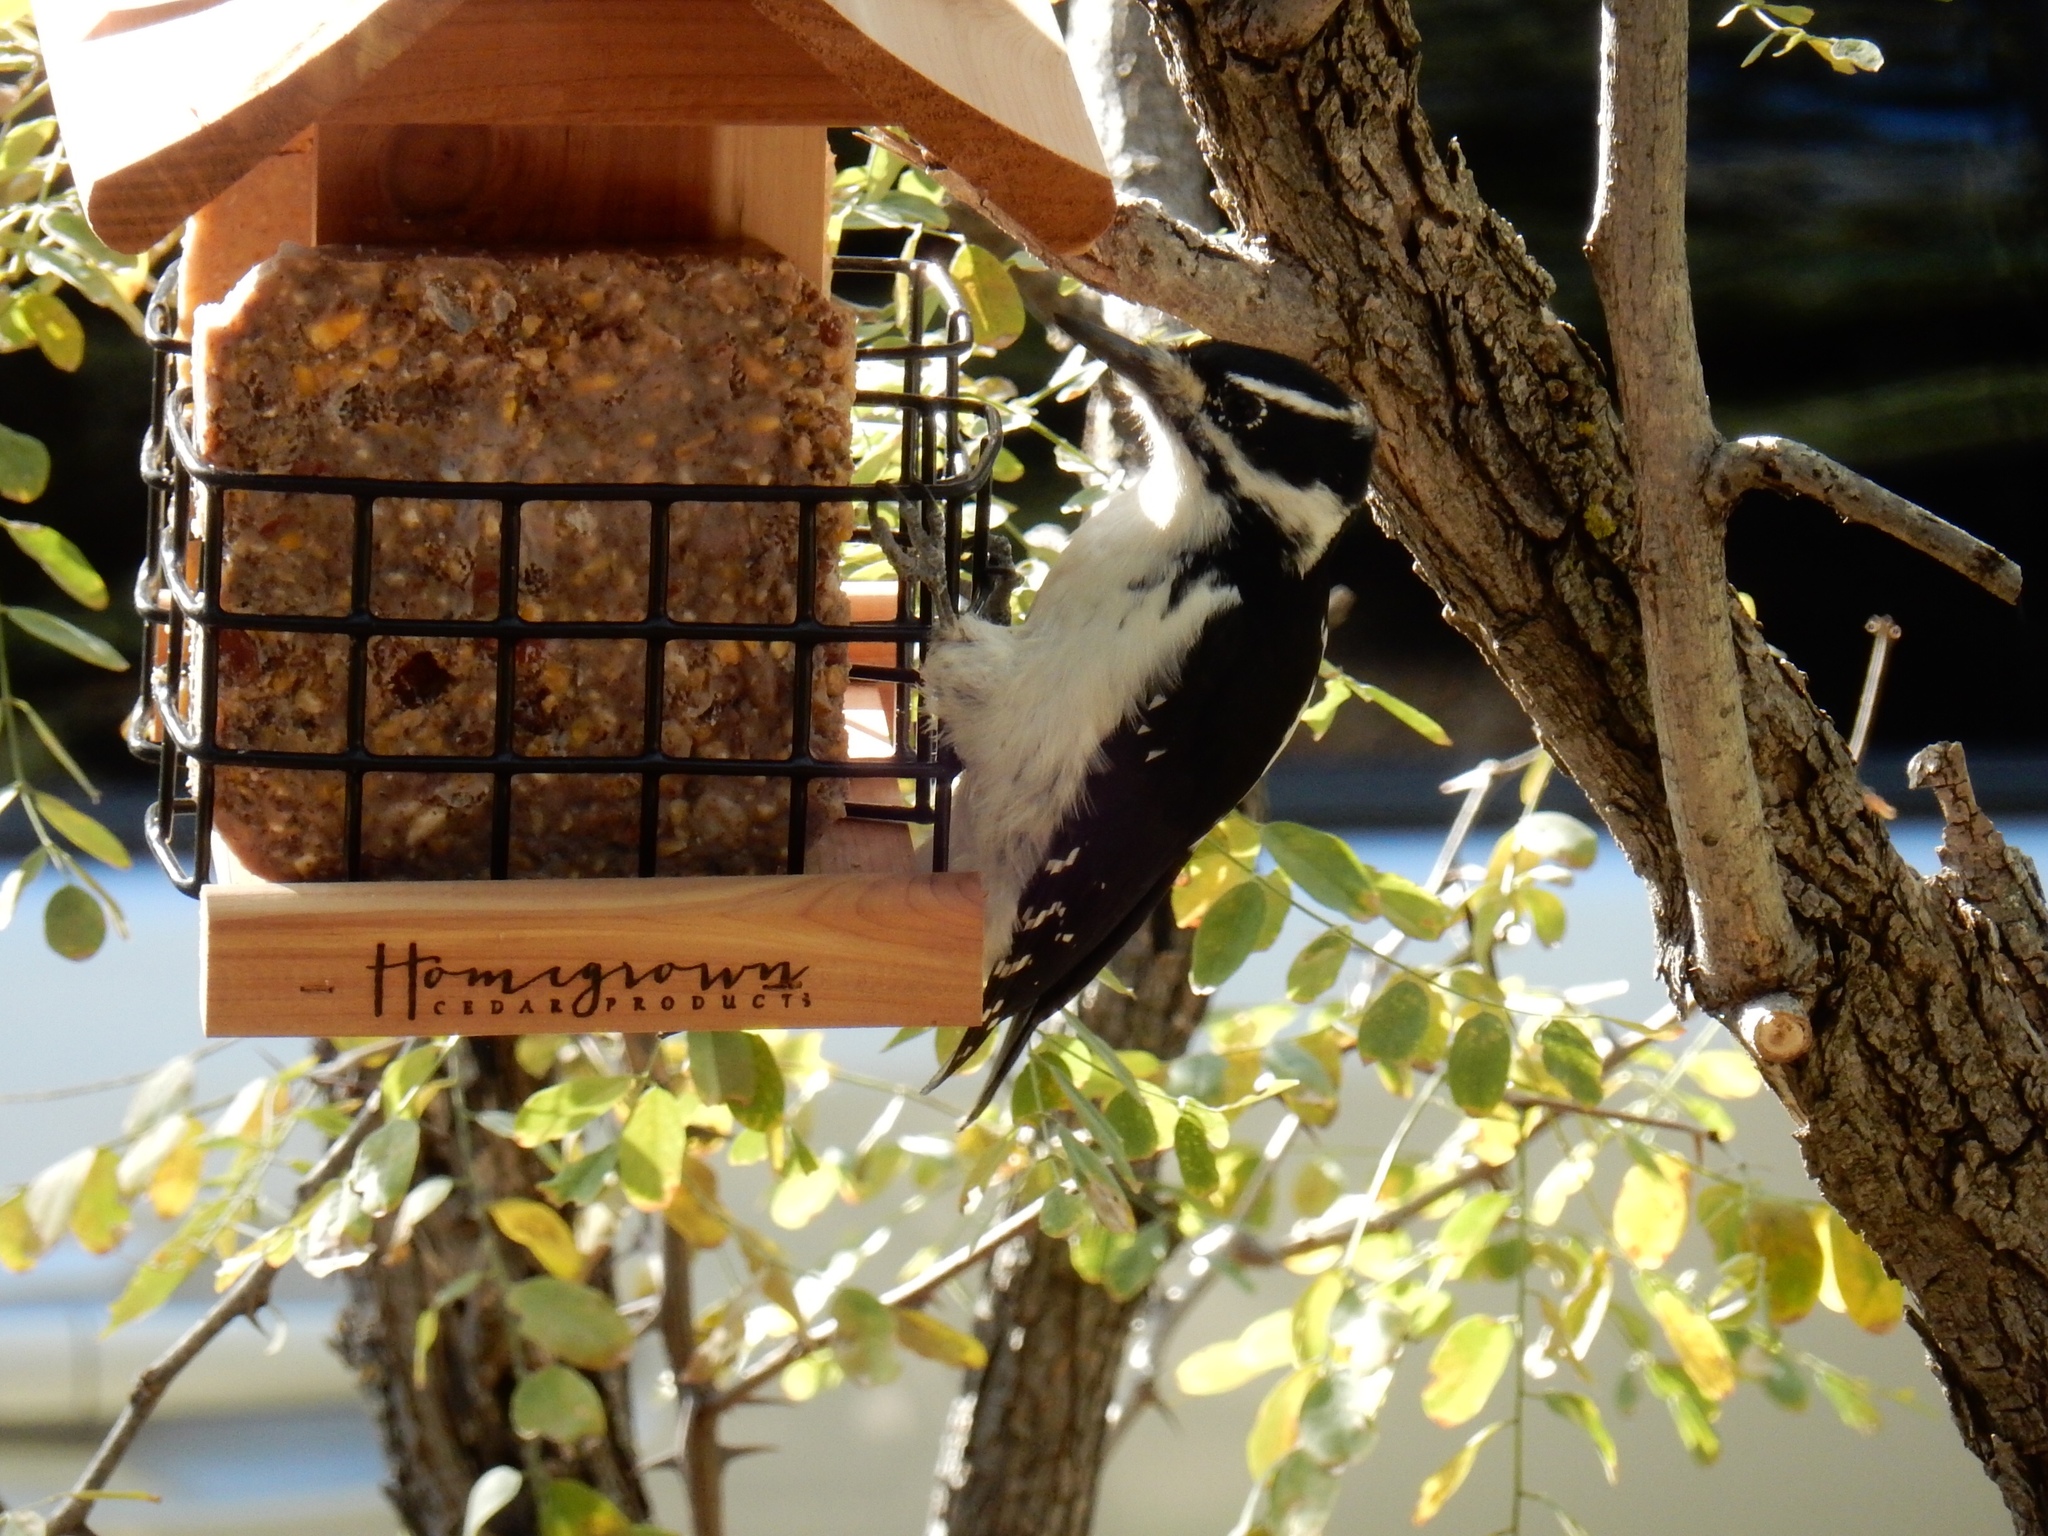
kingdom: Animalia
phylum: Chordata
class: Aves
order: Piciformes
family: Picidae
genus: Leuconotopicus
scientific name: Leuconotopicus villosus
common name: Hairy woodpecker
